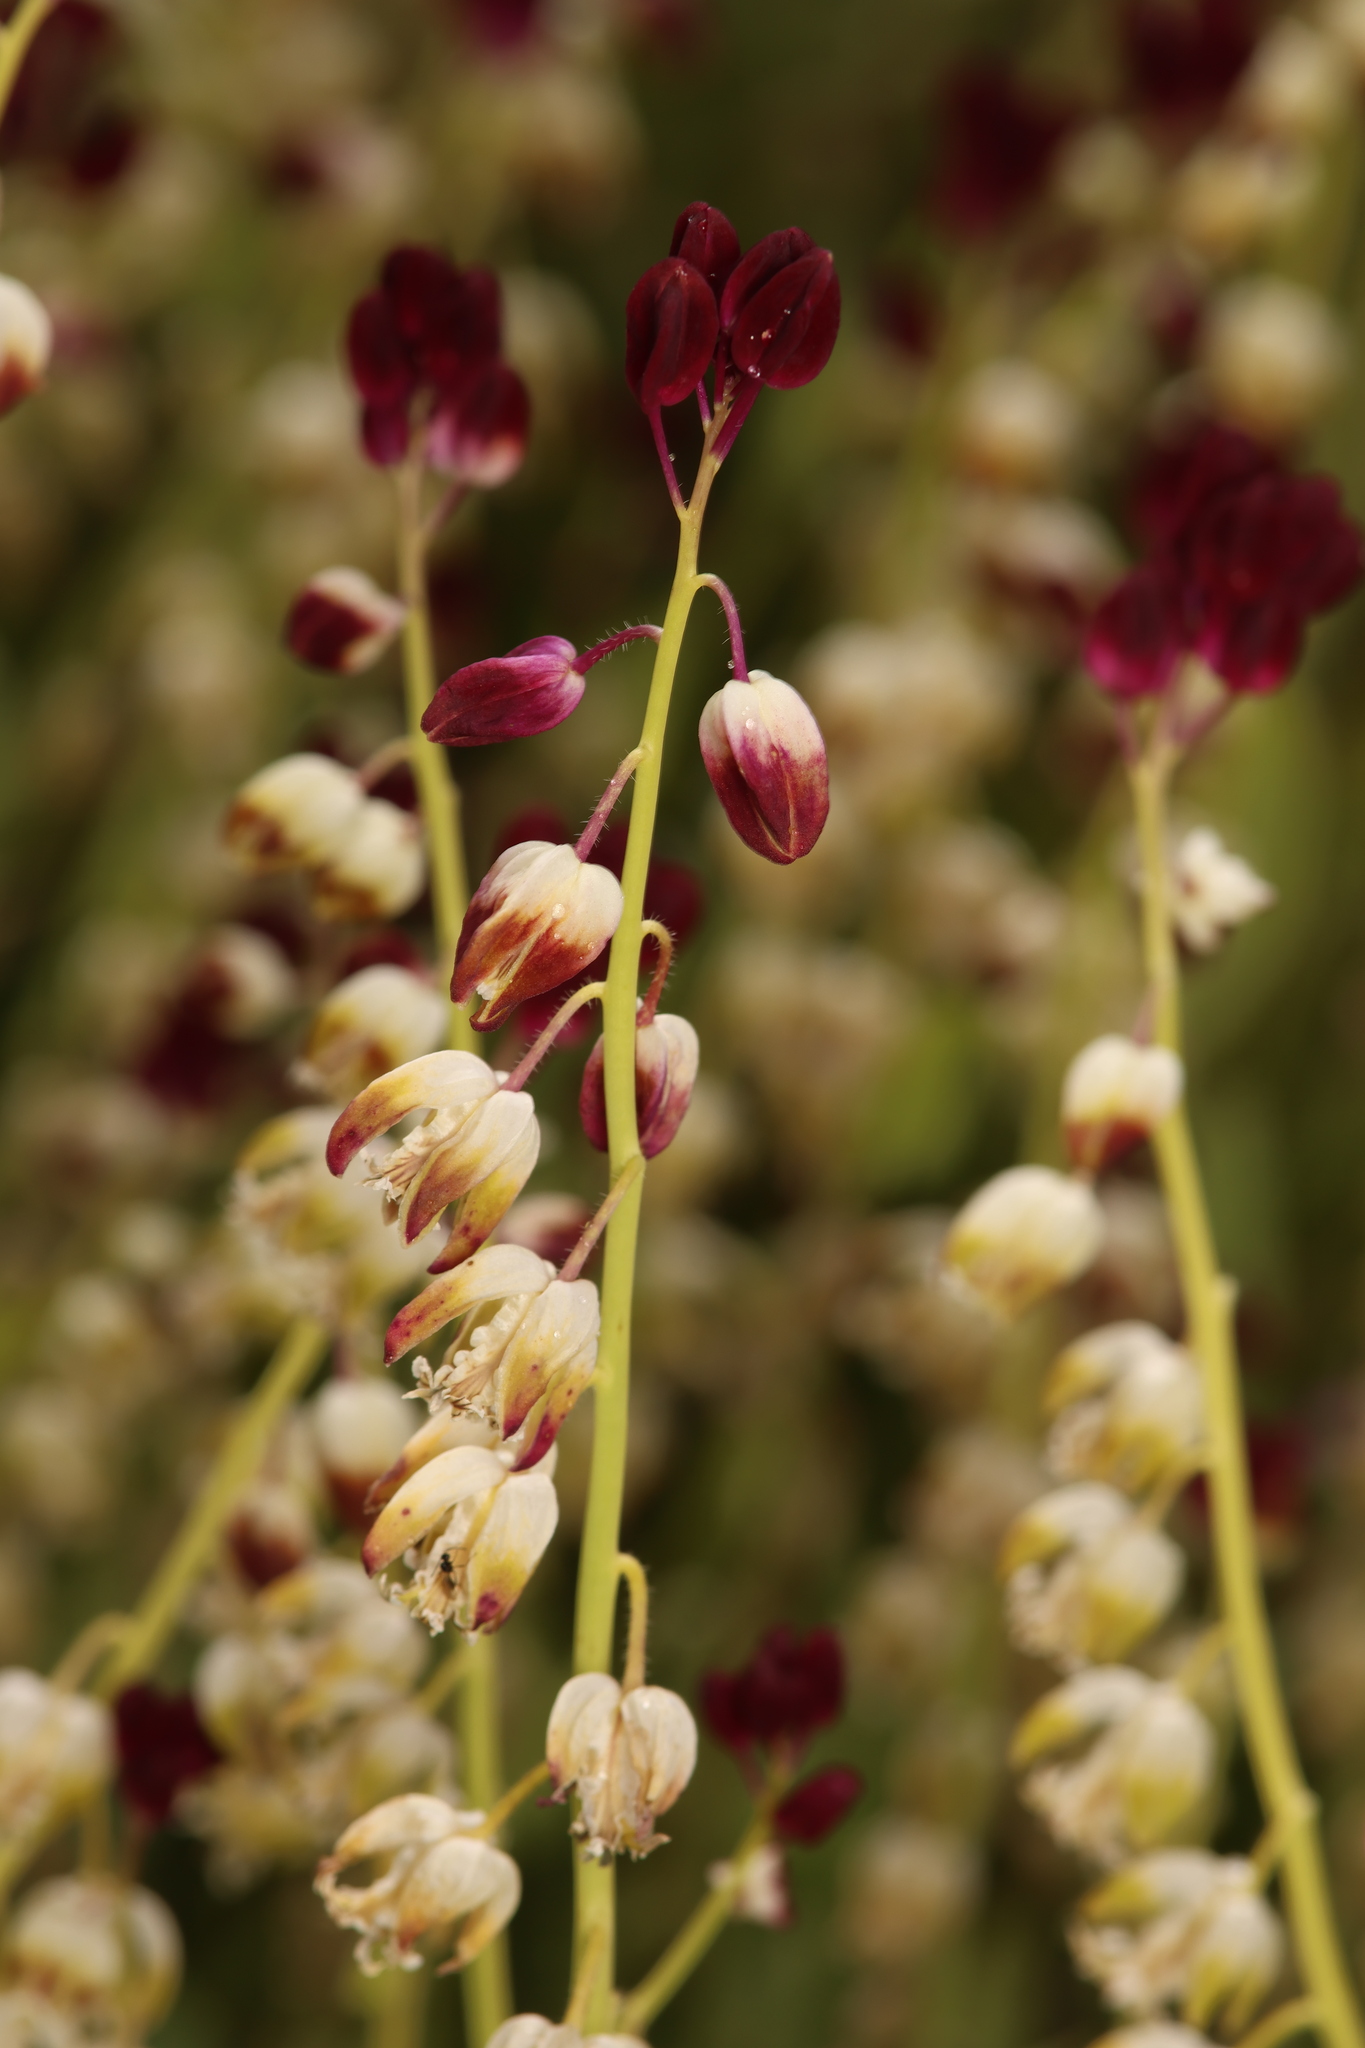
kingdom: Plantae
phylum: Tracheophyta
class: Magnoliopsida
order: Brassicales
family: Brassicaceae
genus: Streptanthus
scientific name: Streptanthus californicus
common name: California-jewel-flower
